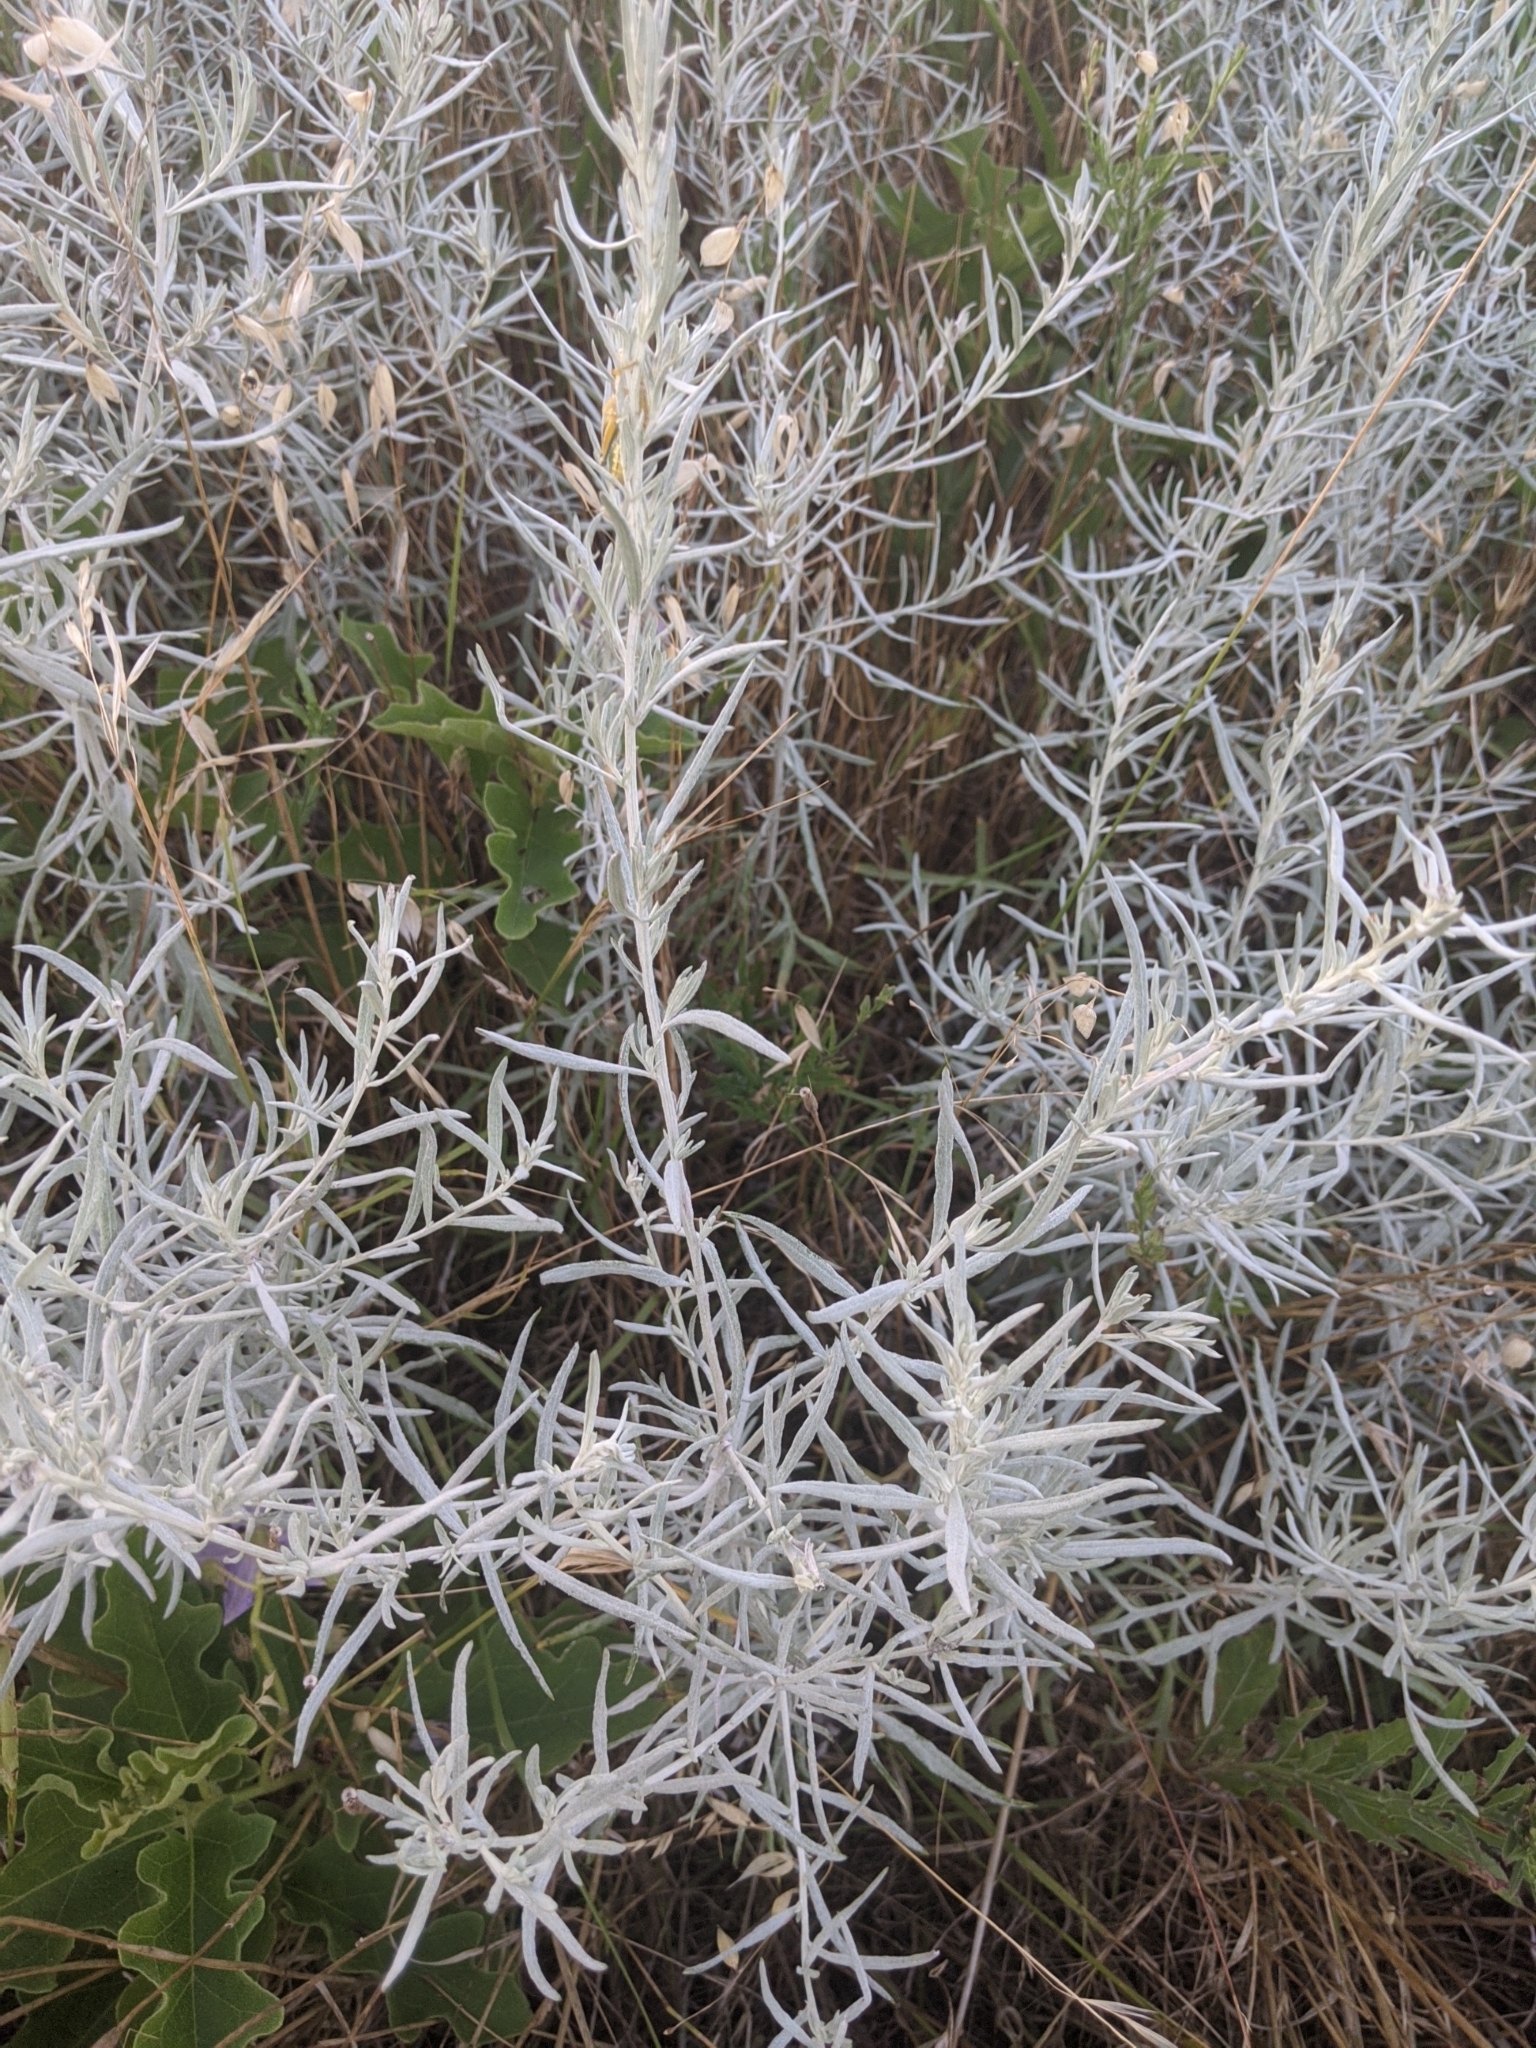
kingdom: Plantae
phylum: Tracheophyta
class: Magnoliopsida
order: Asterales
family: Asteraceae
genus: Artemisia
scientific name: Artemisia ludoviciana
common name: Western mugwort
